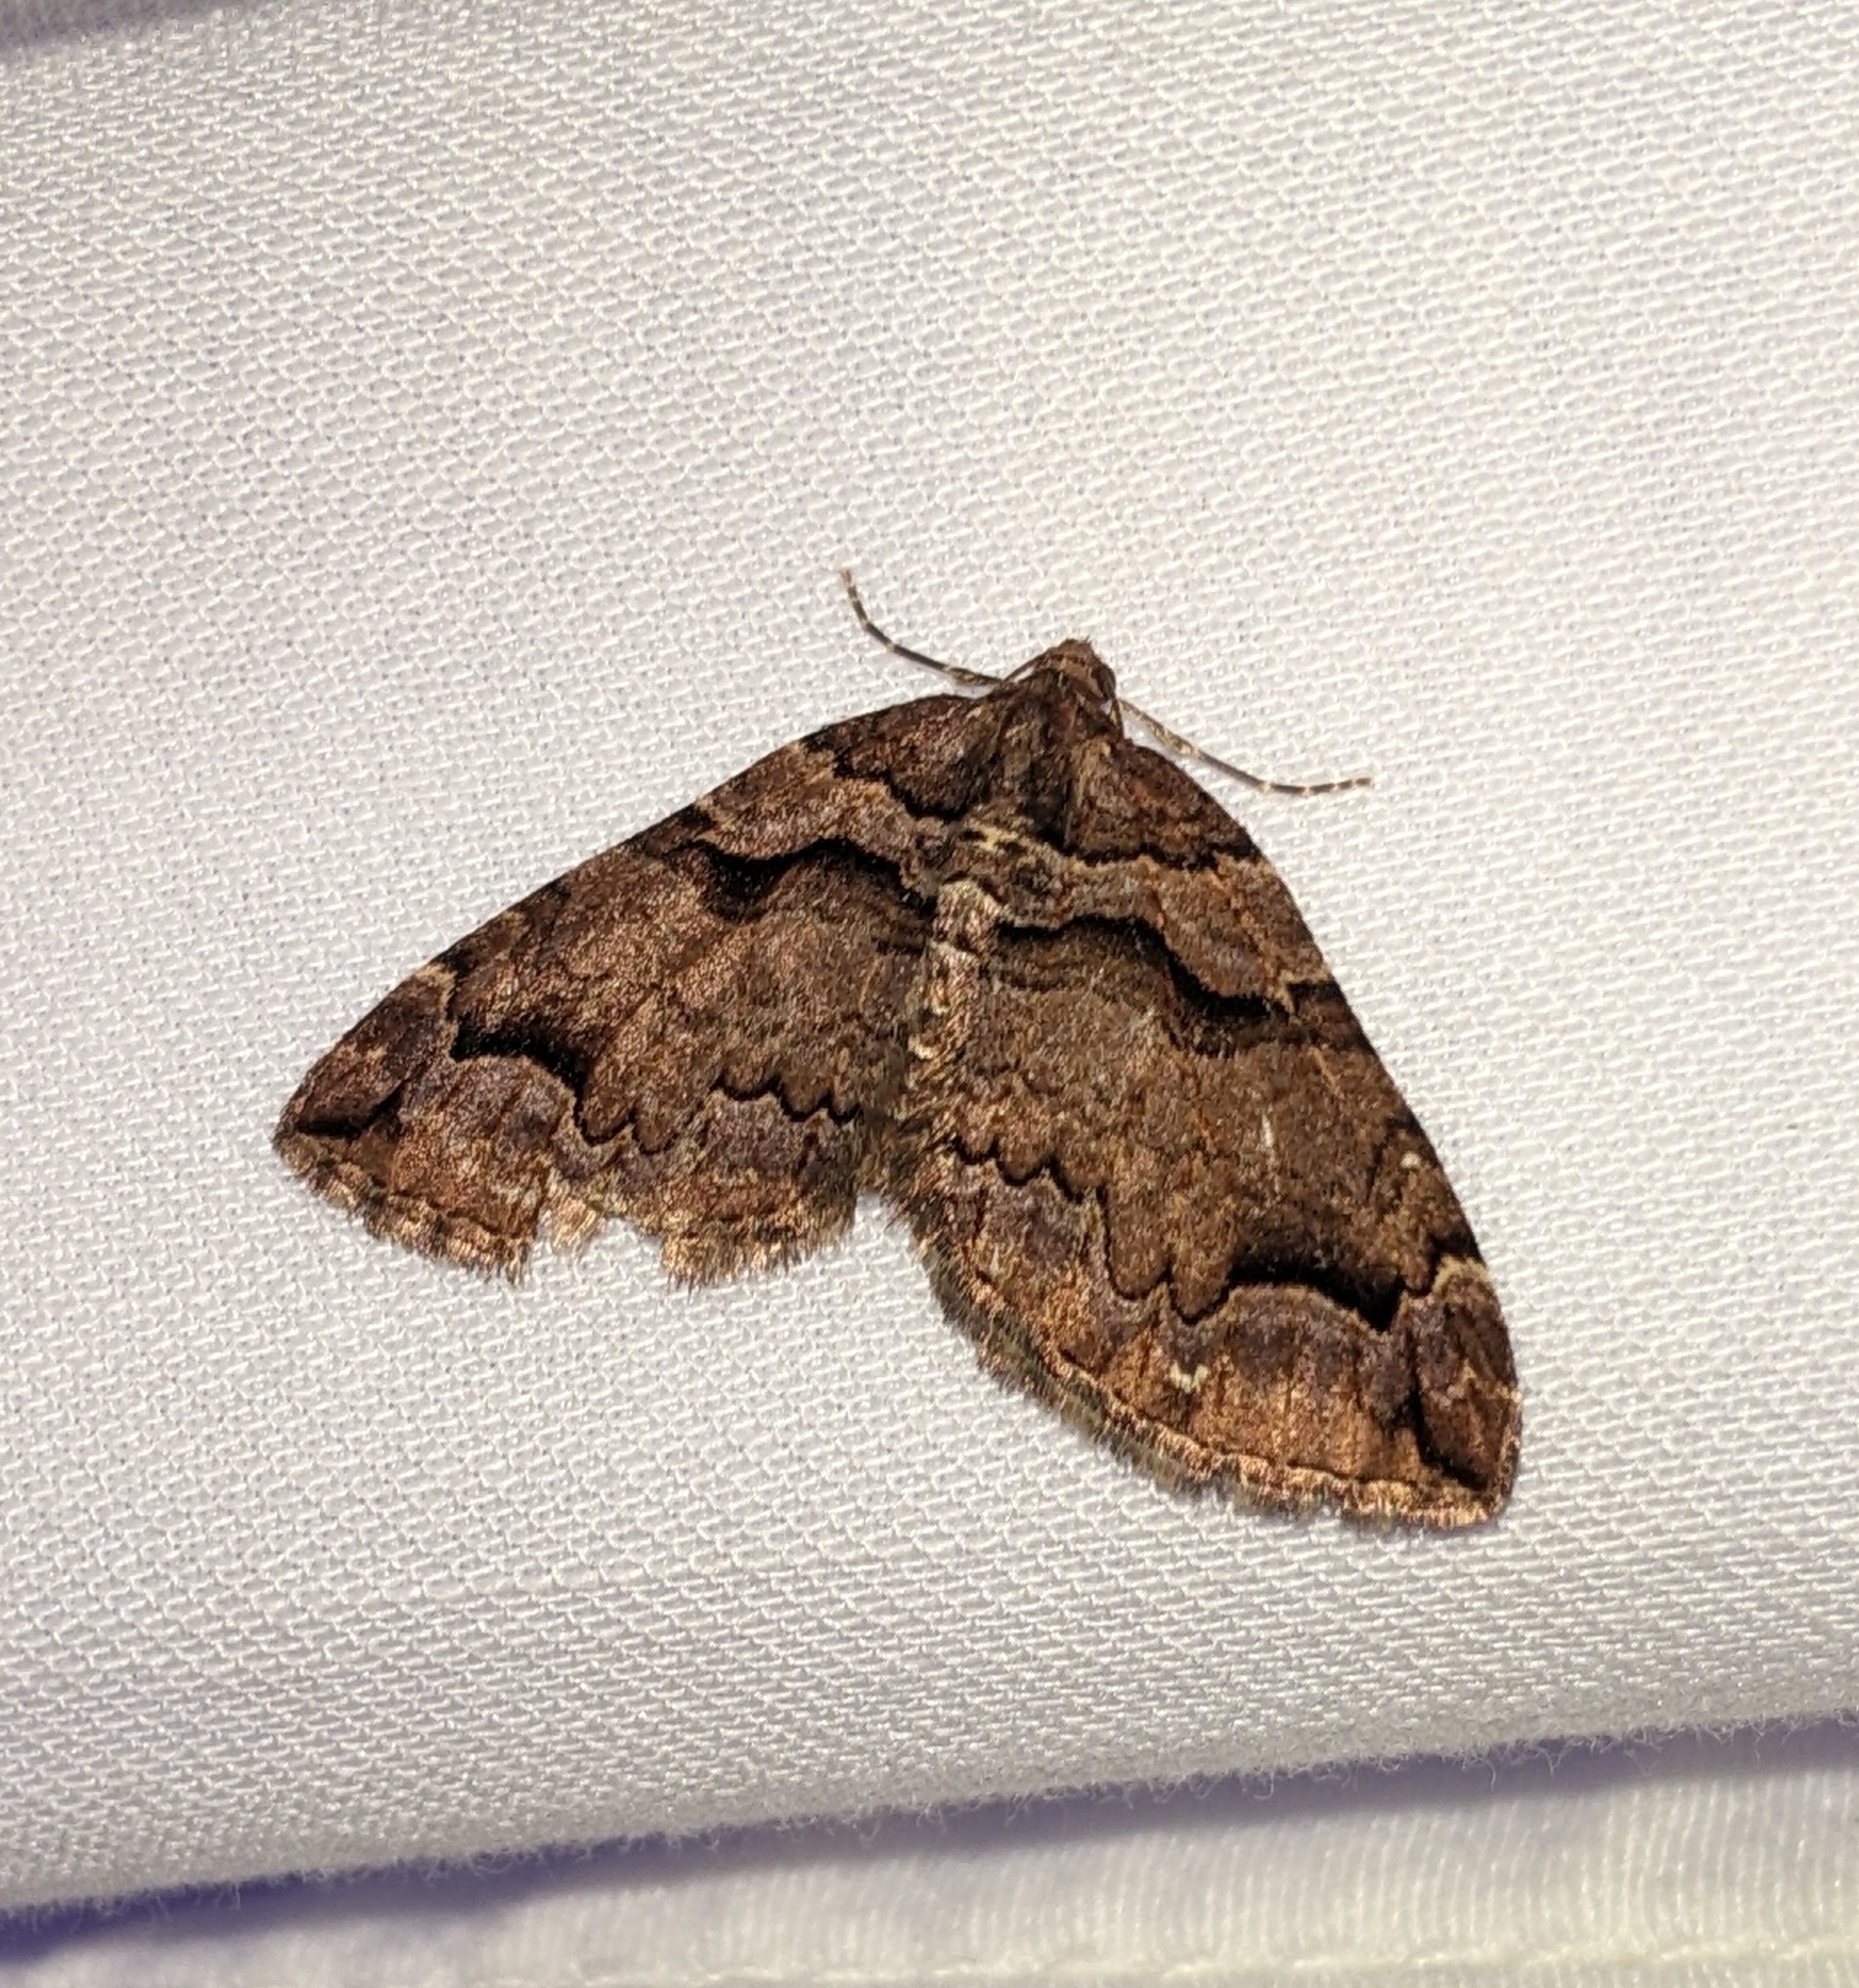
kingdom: Animalia
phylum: Arthropoda
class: Insecta
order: Lepidoptera
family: Geometridae
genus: Anticlea
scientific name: Anticlea vasiliata
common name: Variable carpet
